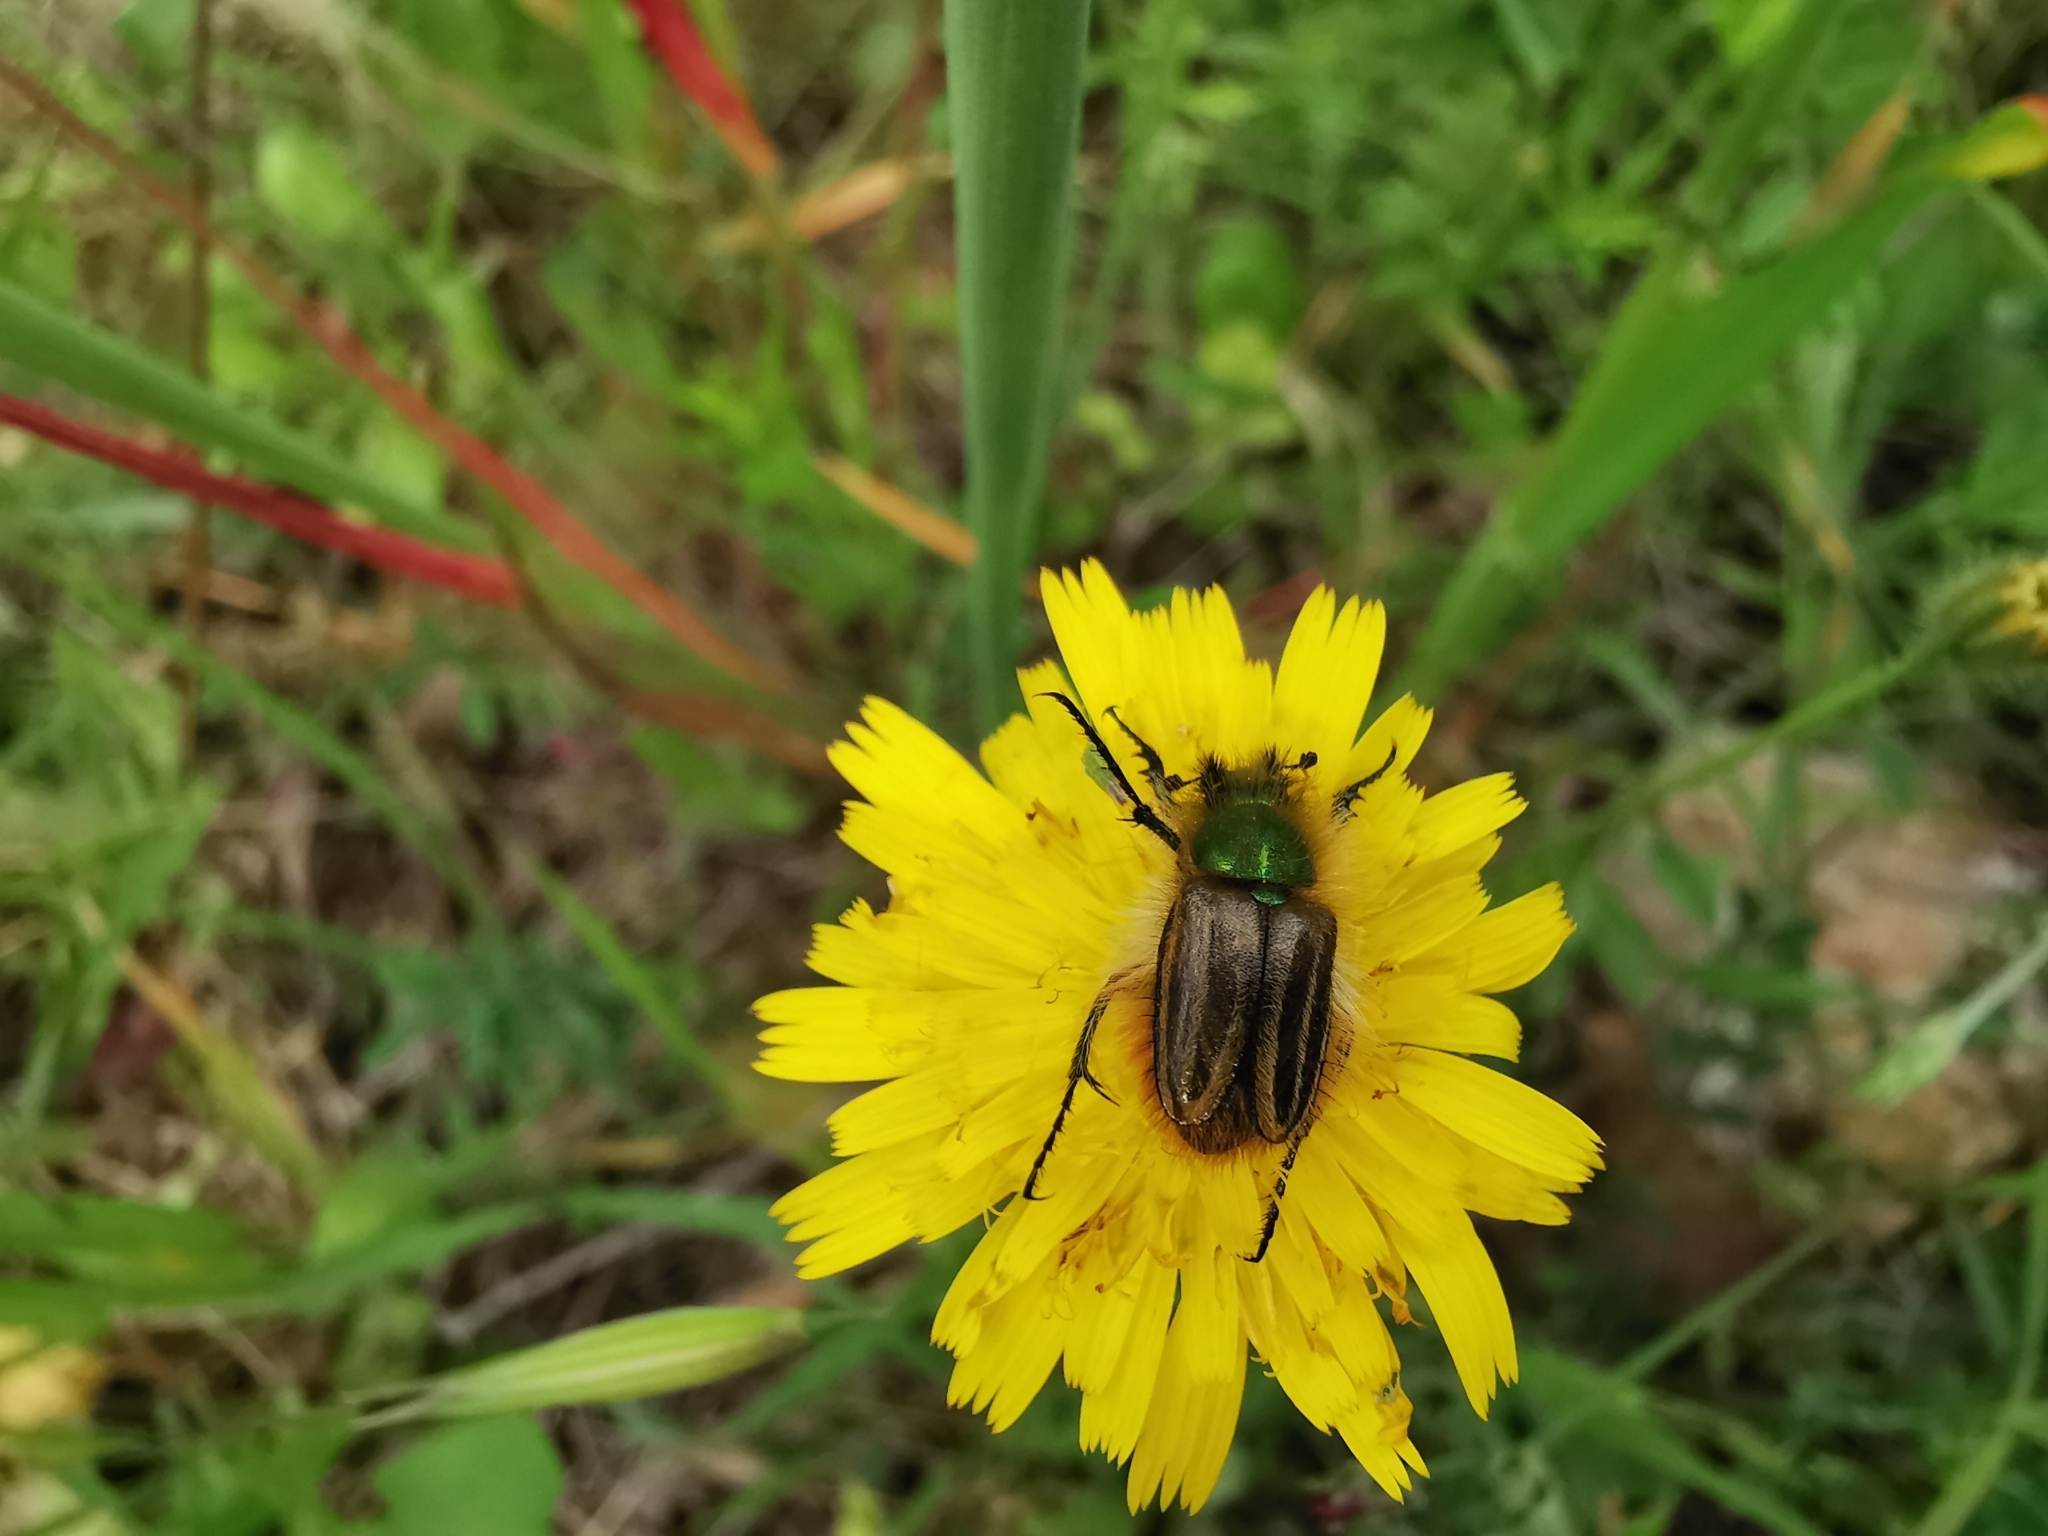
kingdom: Animalia
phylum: Arthropoda
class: Insecta
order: Coleoptera
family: Glaphyridae
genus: Eulasia
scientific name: Eulasia pareyssei
